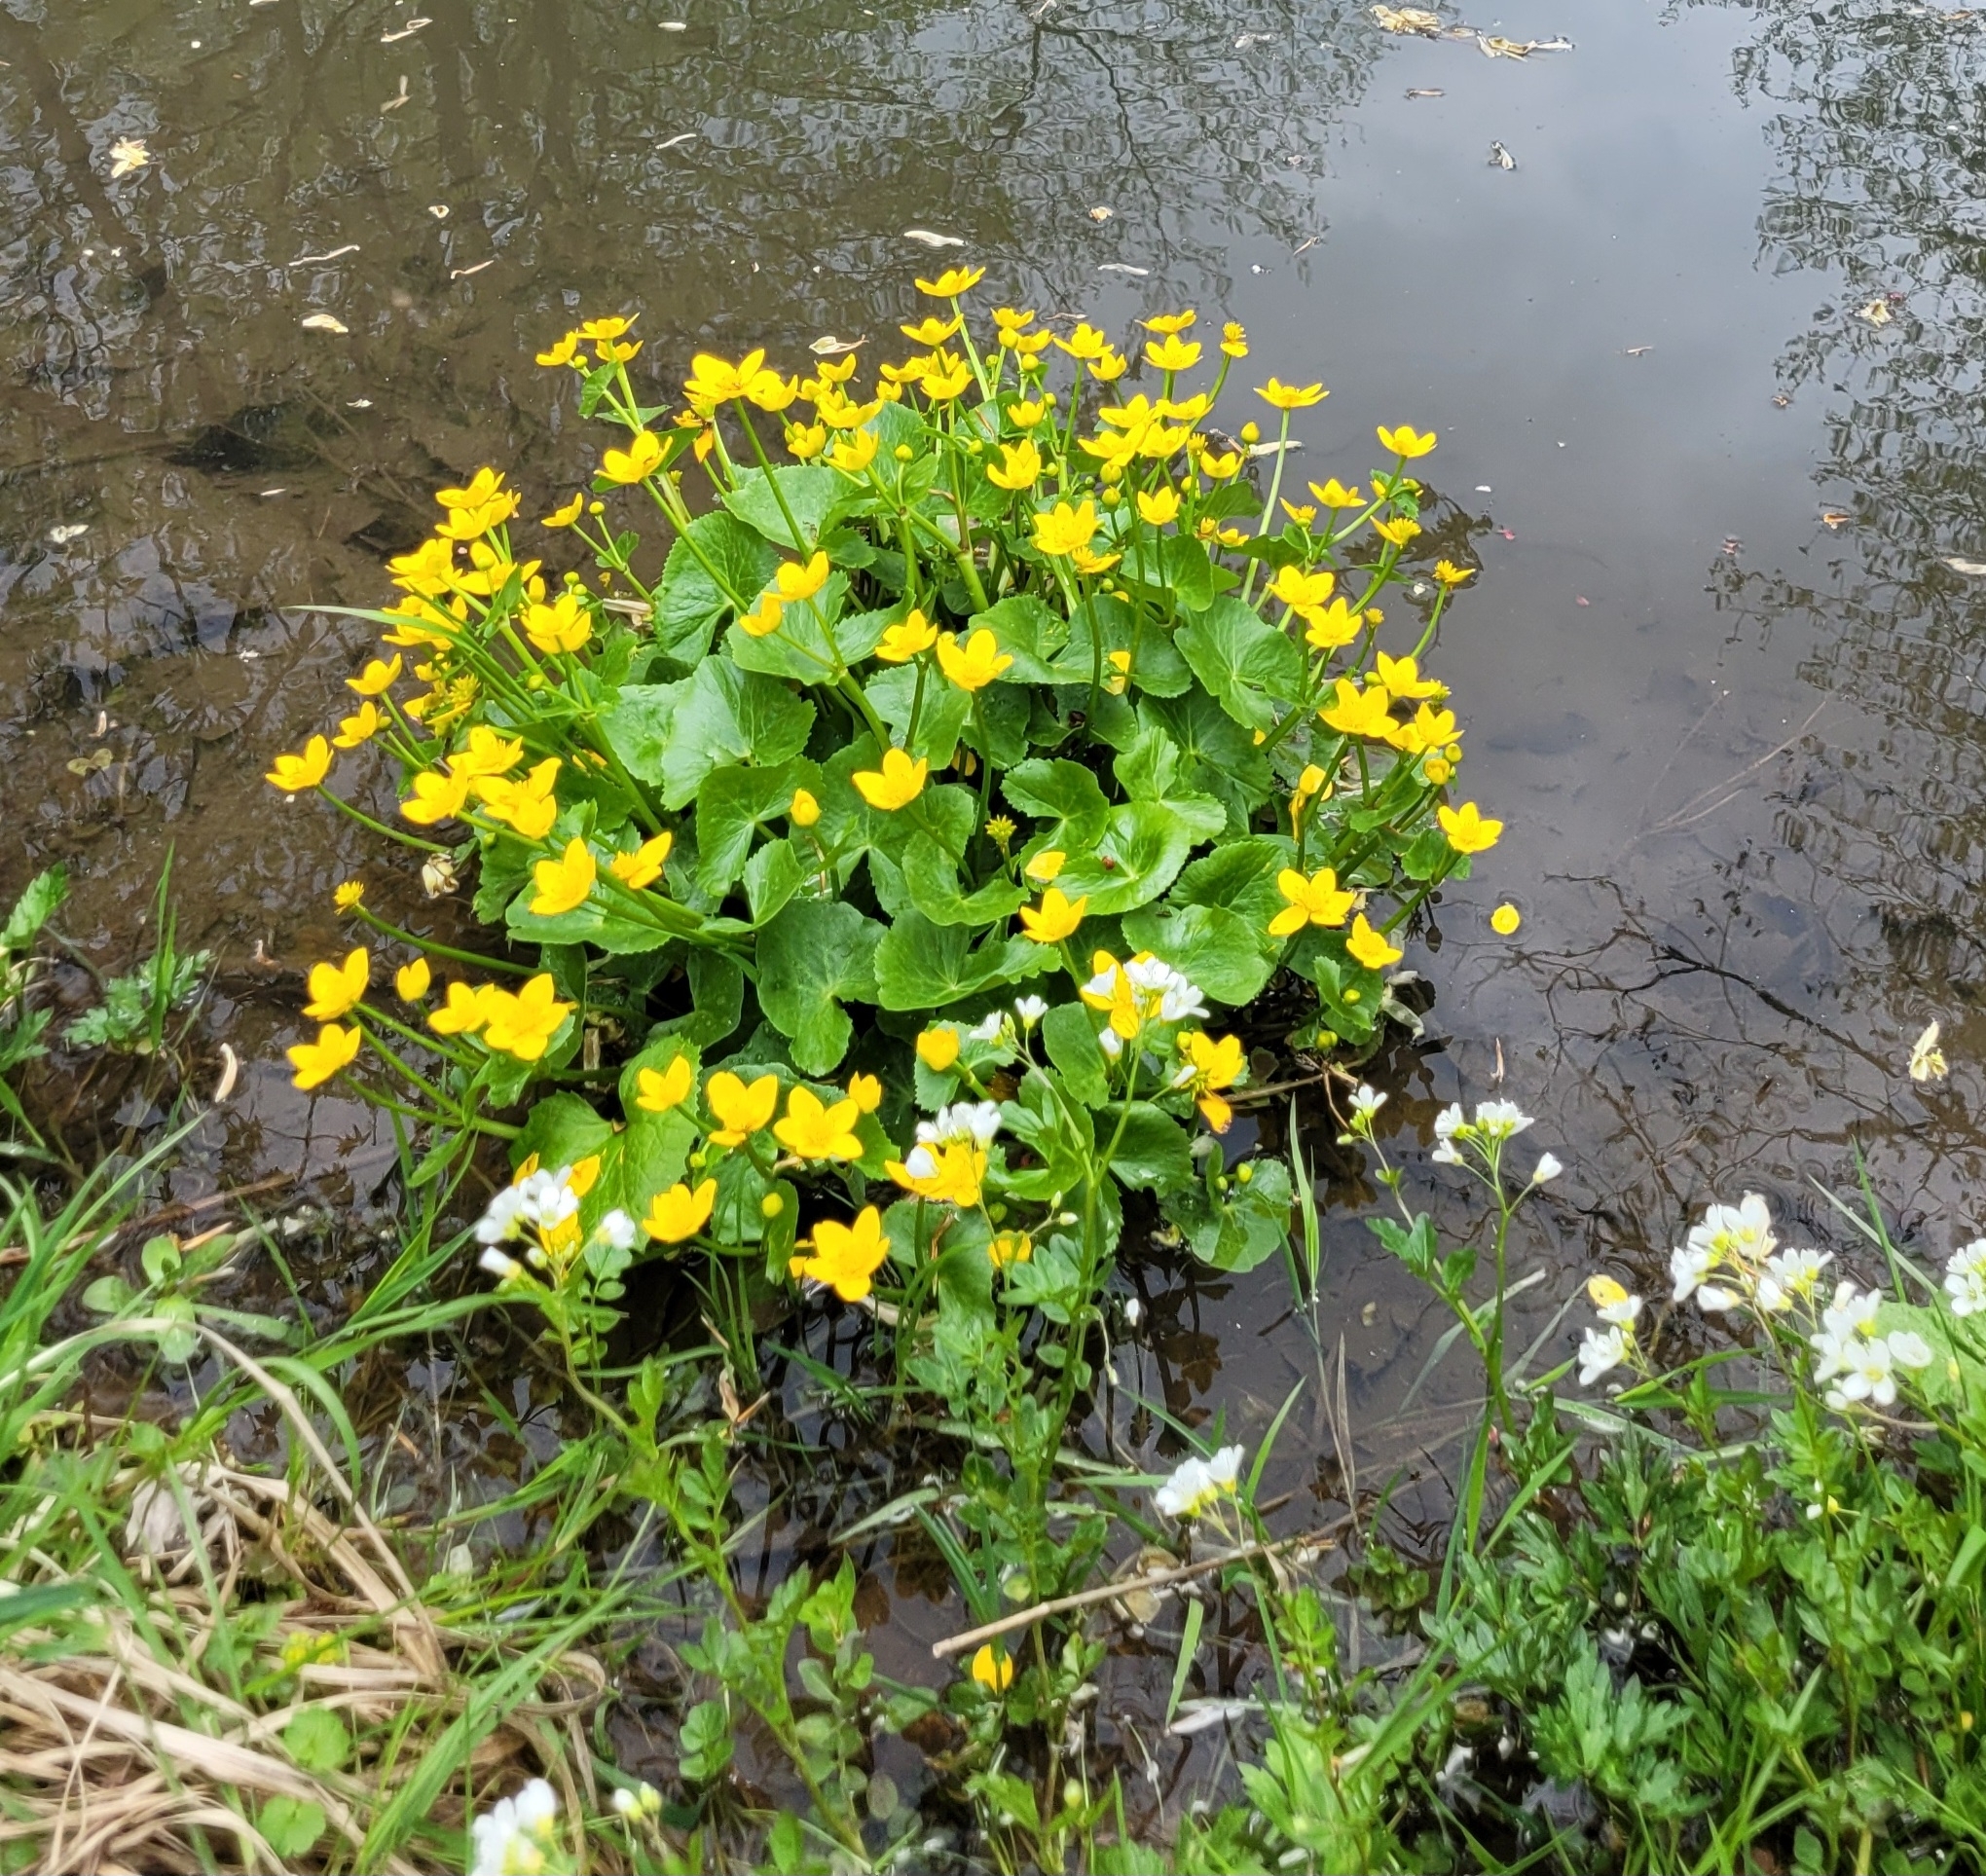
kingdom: Plantae
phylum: Tracheophyta
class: Magnoliopsida
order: Ranunculales
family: Ranunculaceae
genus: Caltha
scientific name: Caltha palustris
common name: Marsh marigold
